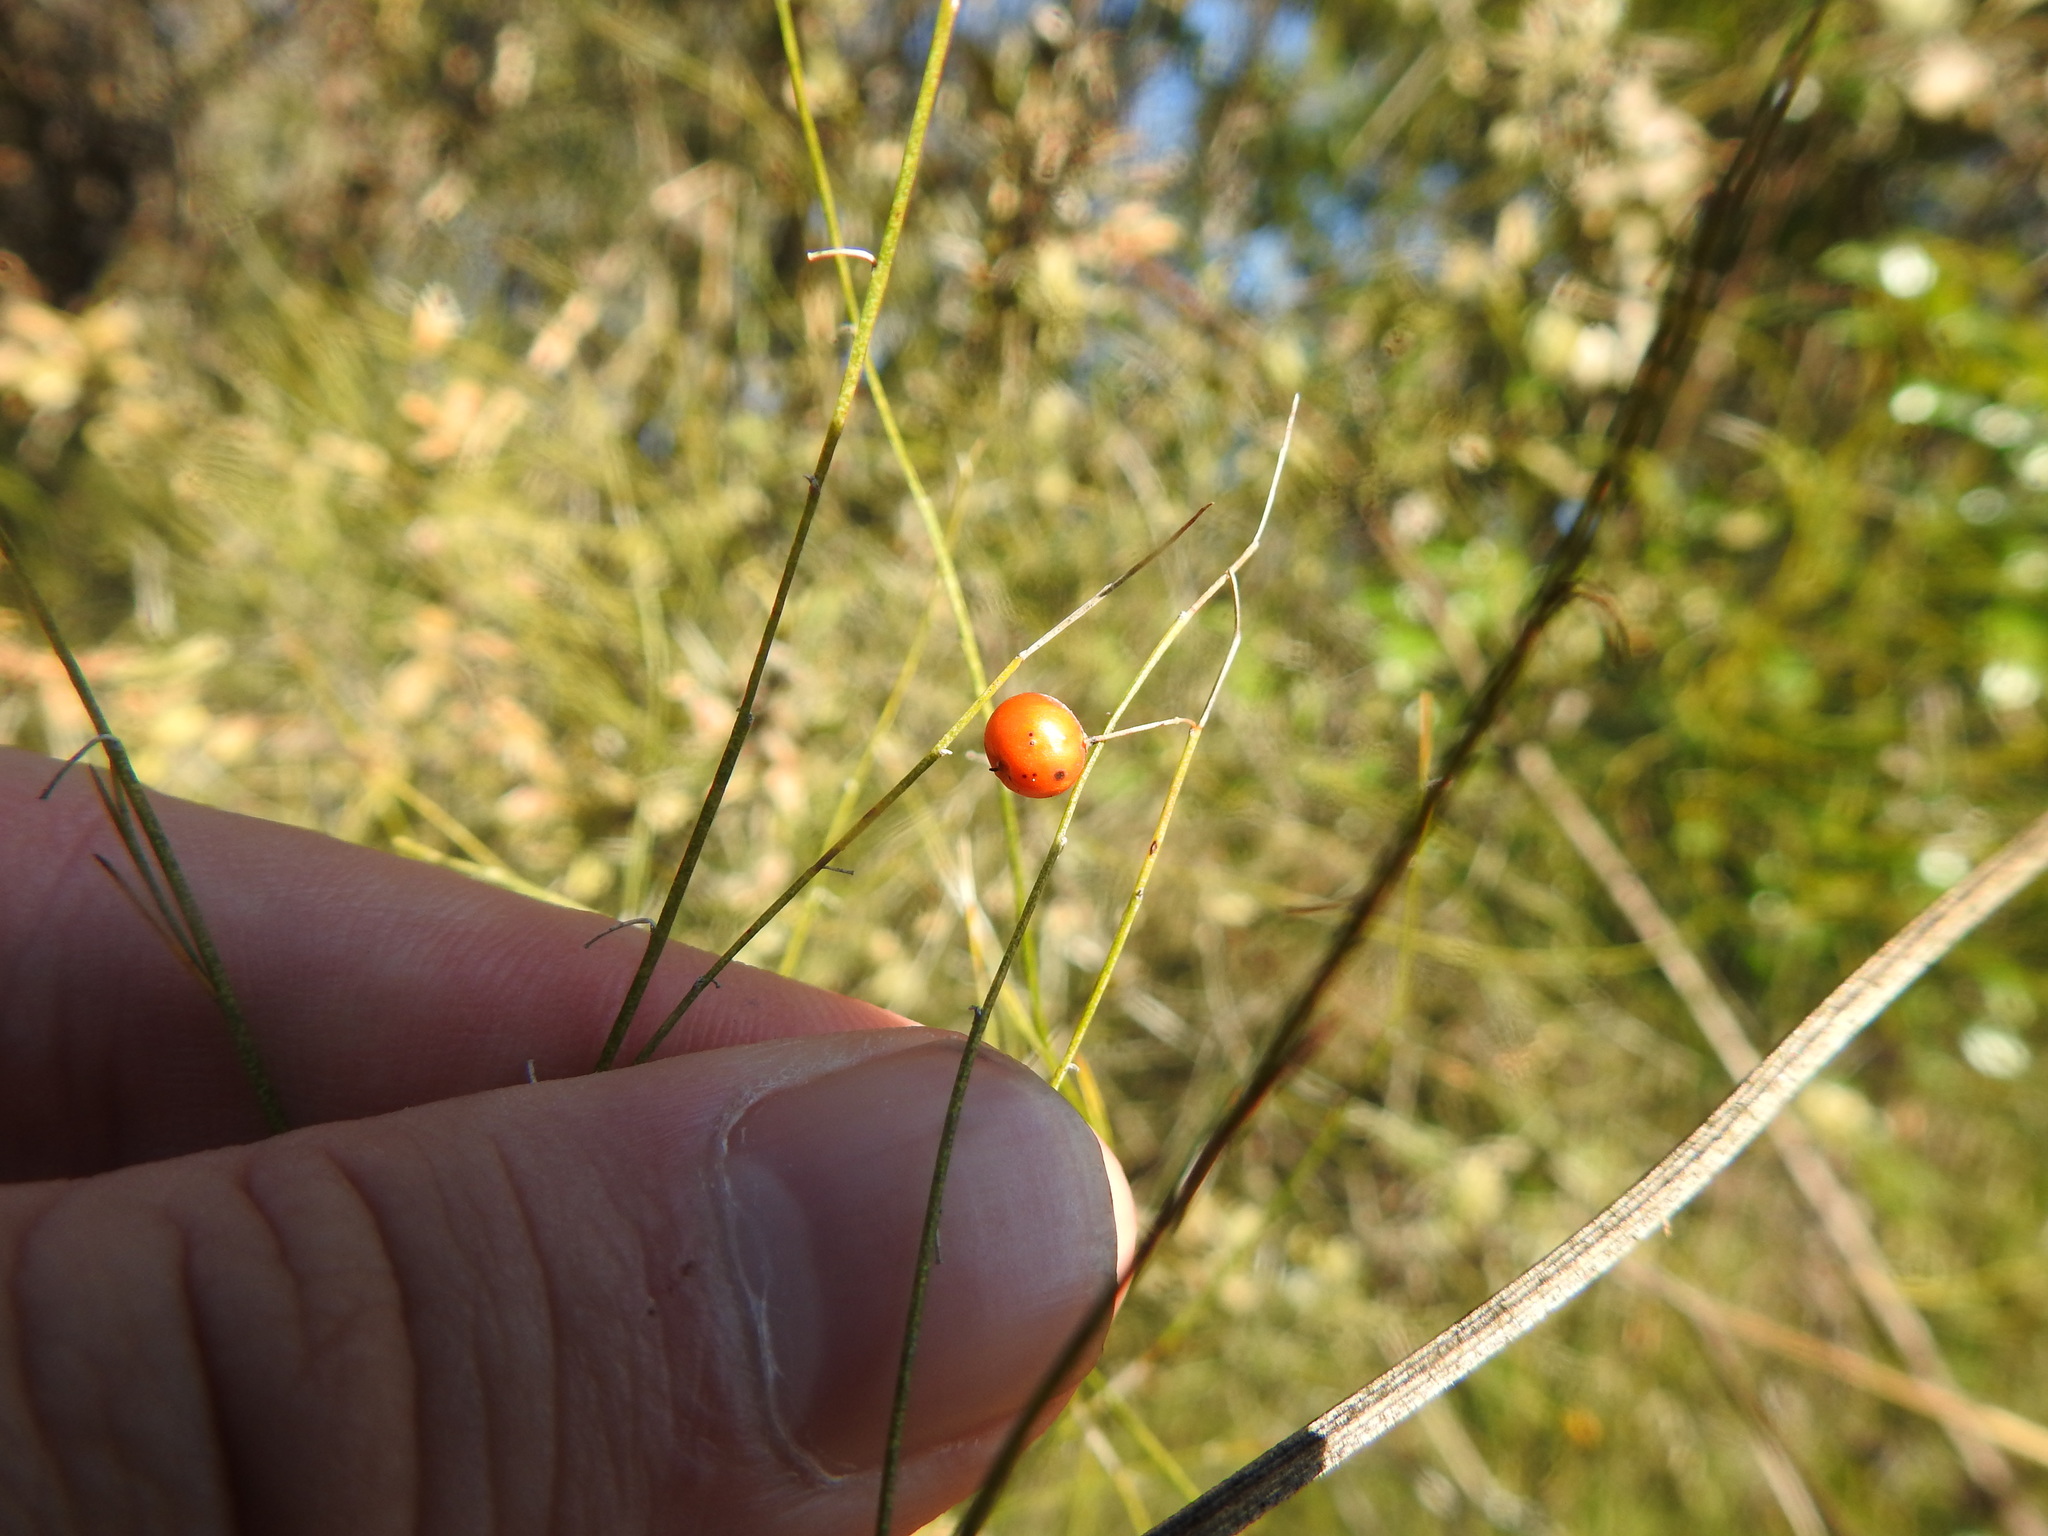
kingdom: Plantae
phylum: Tracheophyta
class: Liliopsida
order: Asparagales
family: Asparagaceae
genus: Asparagus
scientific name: Asparagus virgatus
